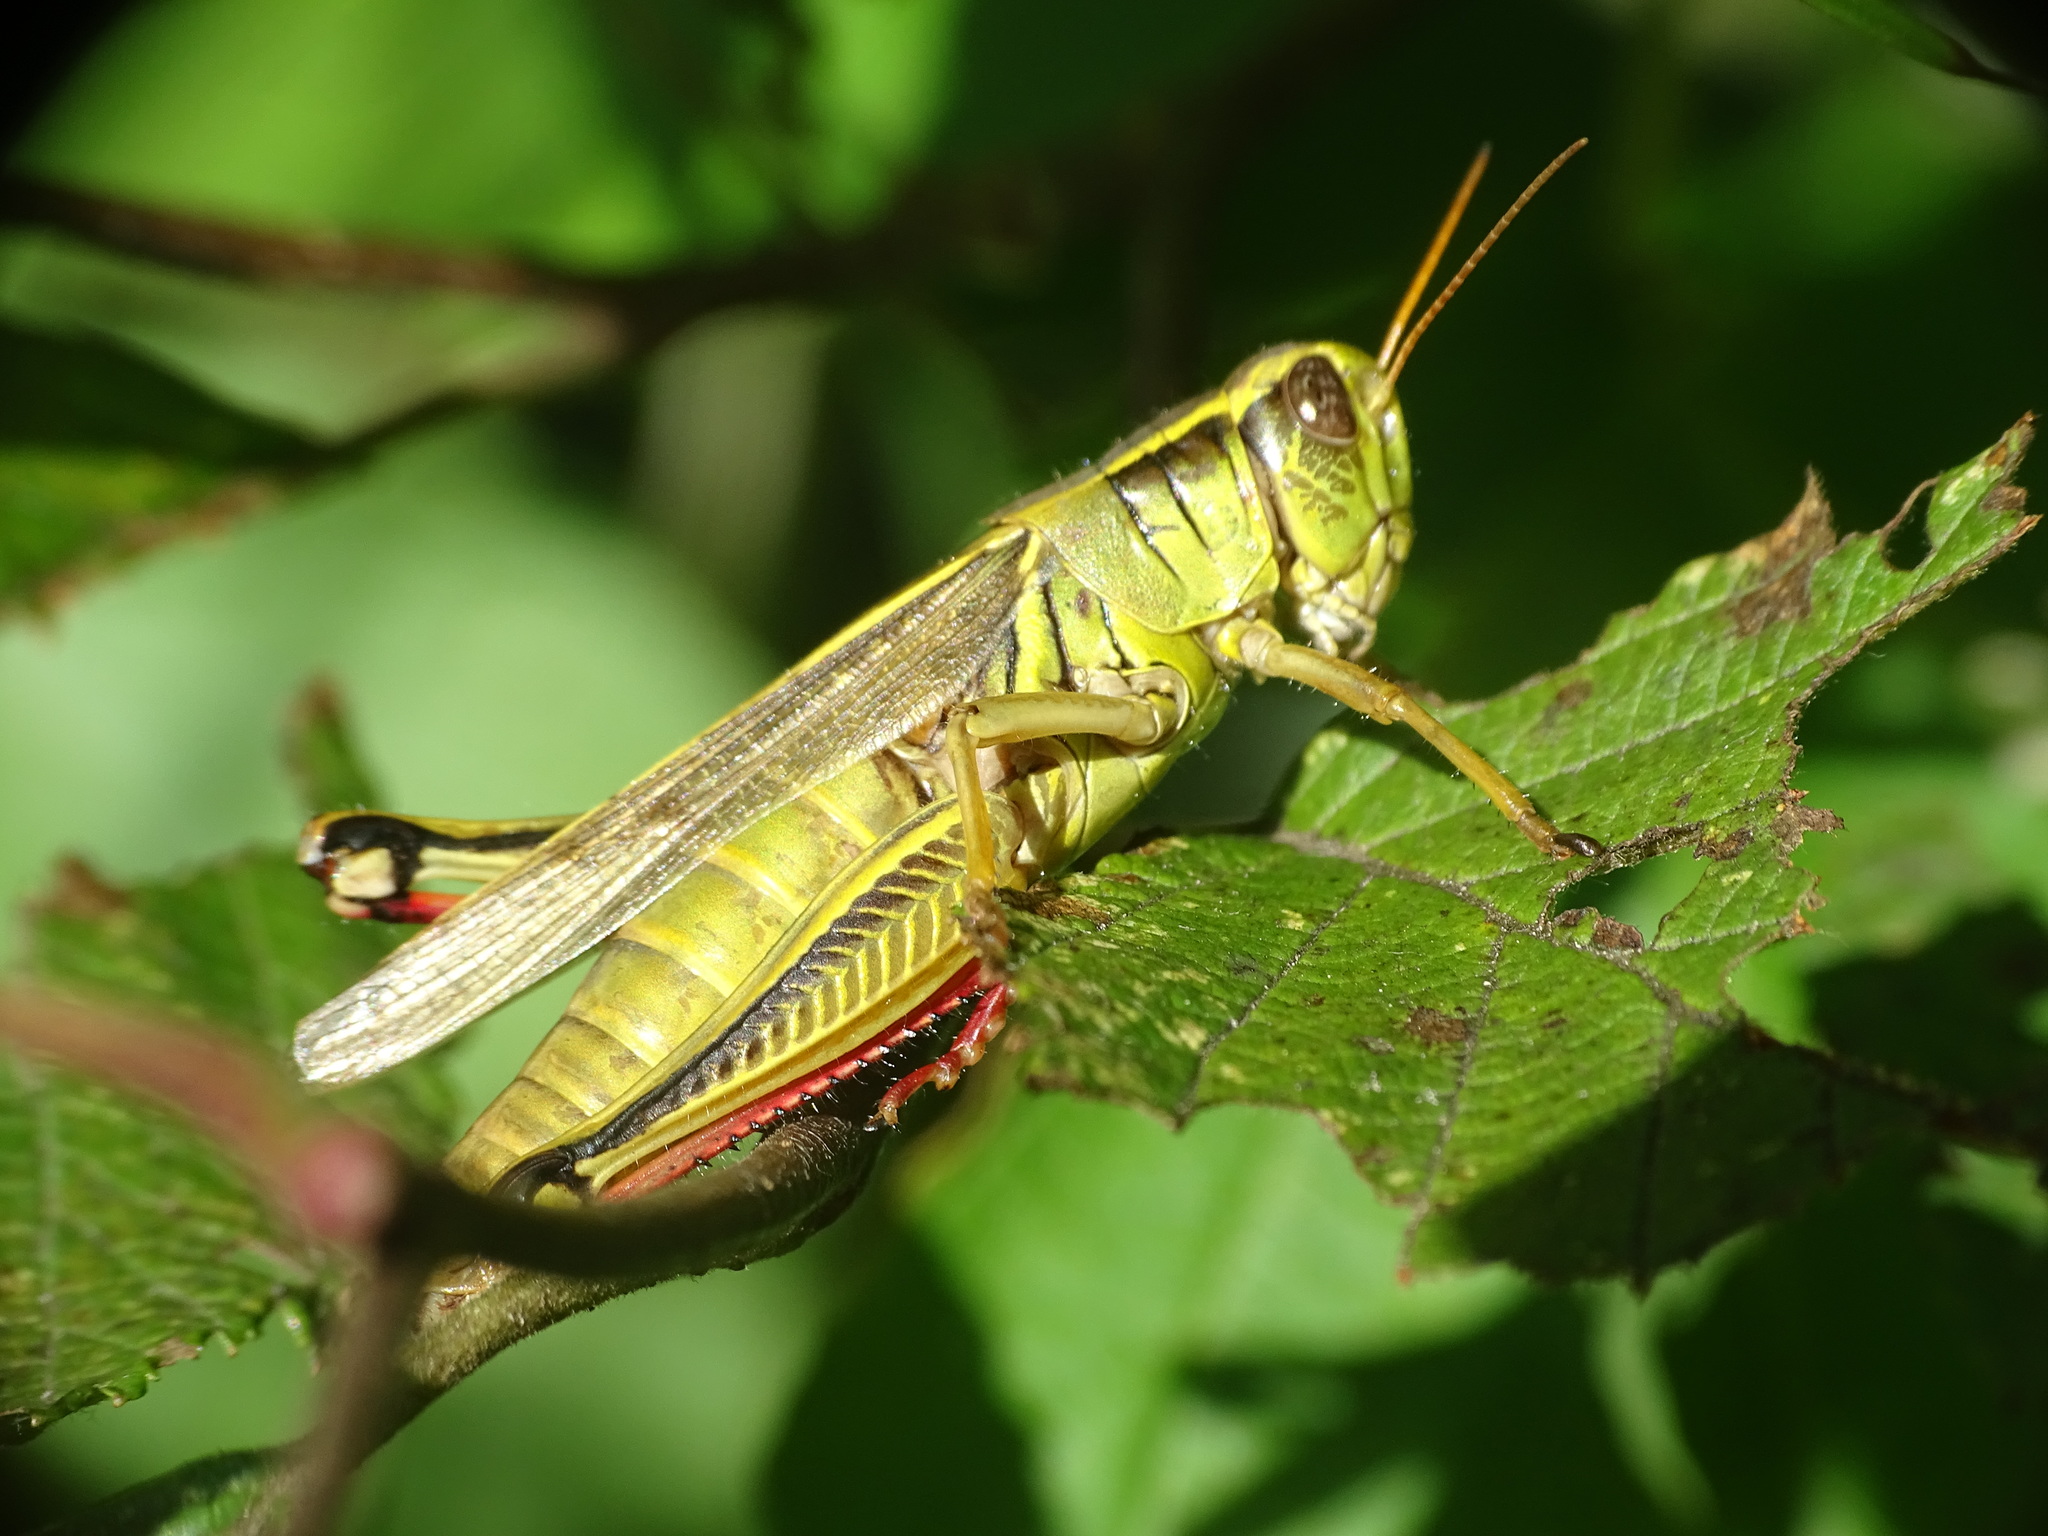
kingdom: Animalia
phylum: Arthropoda
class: Insecta
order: Orthoptera
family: Acrididae
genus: Melanoplus
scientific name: Melanoplus bivittatus
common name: Two-striped grasshopper
